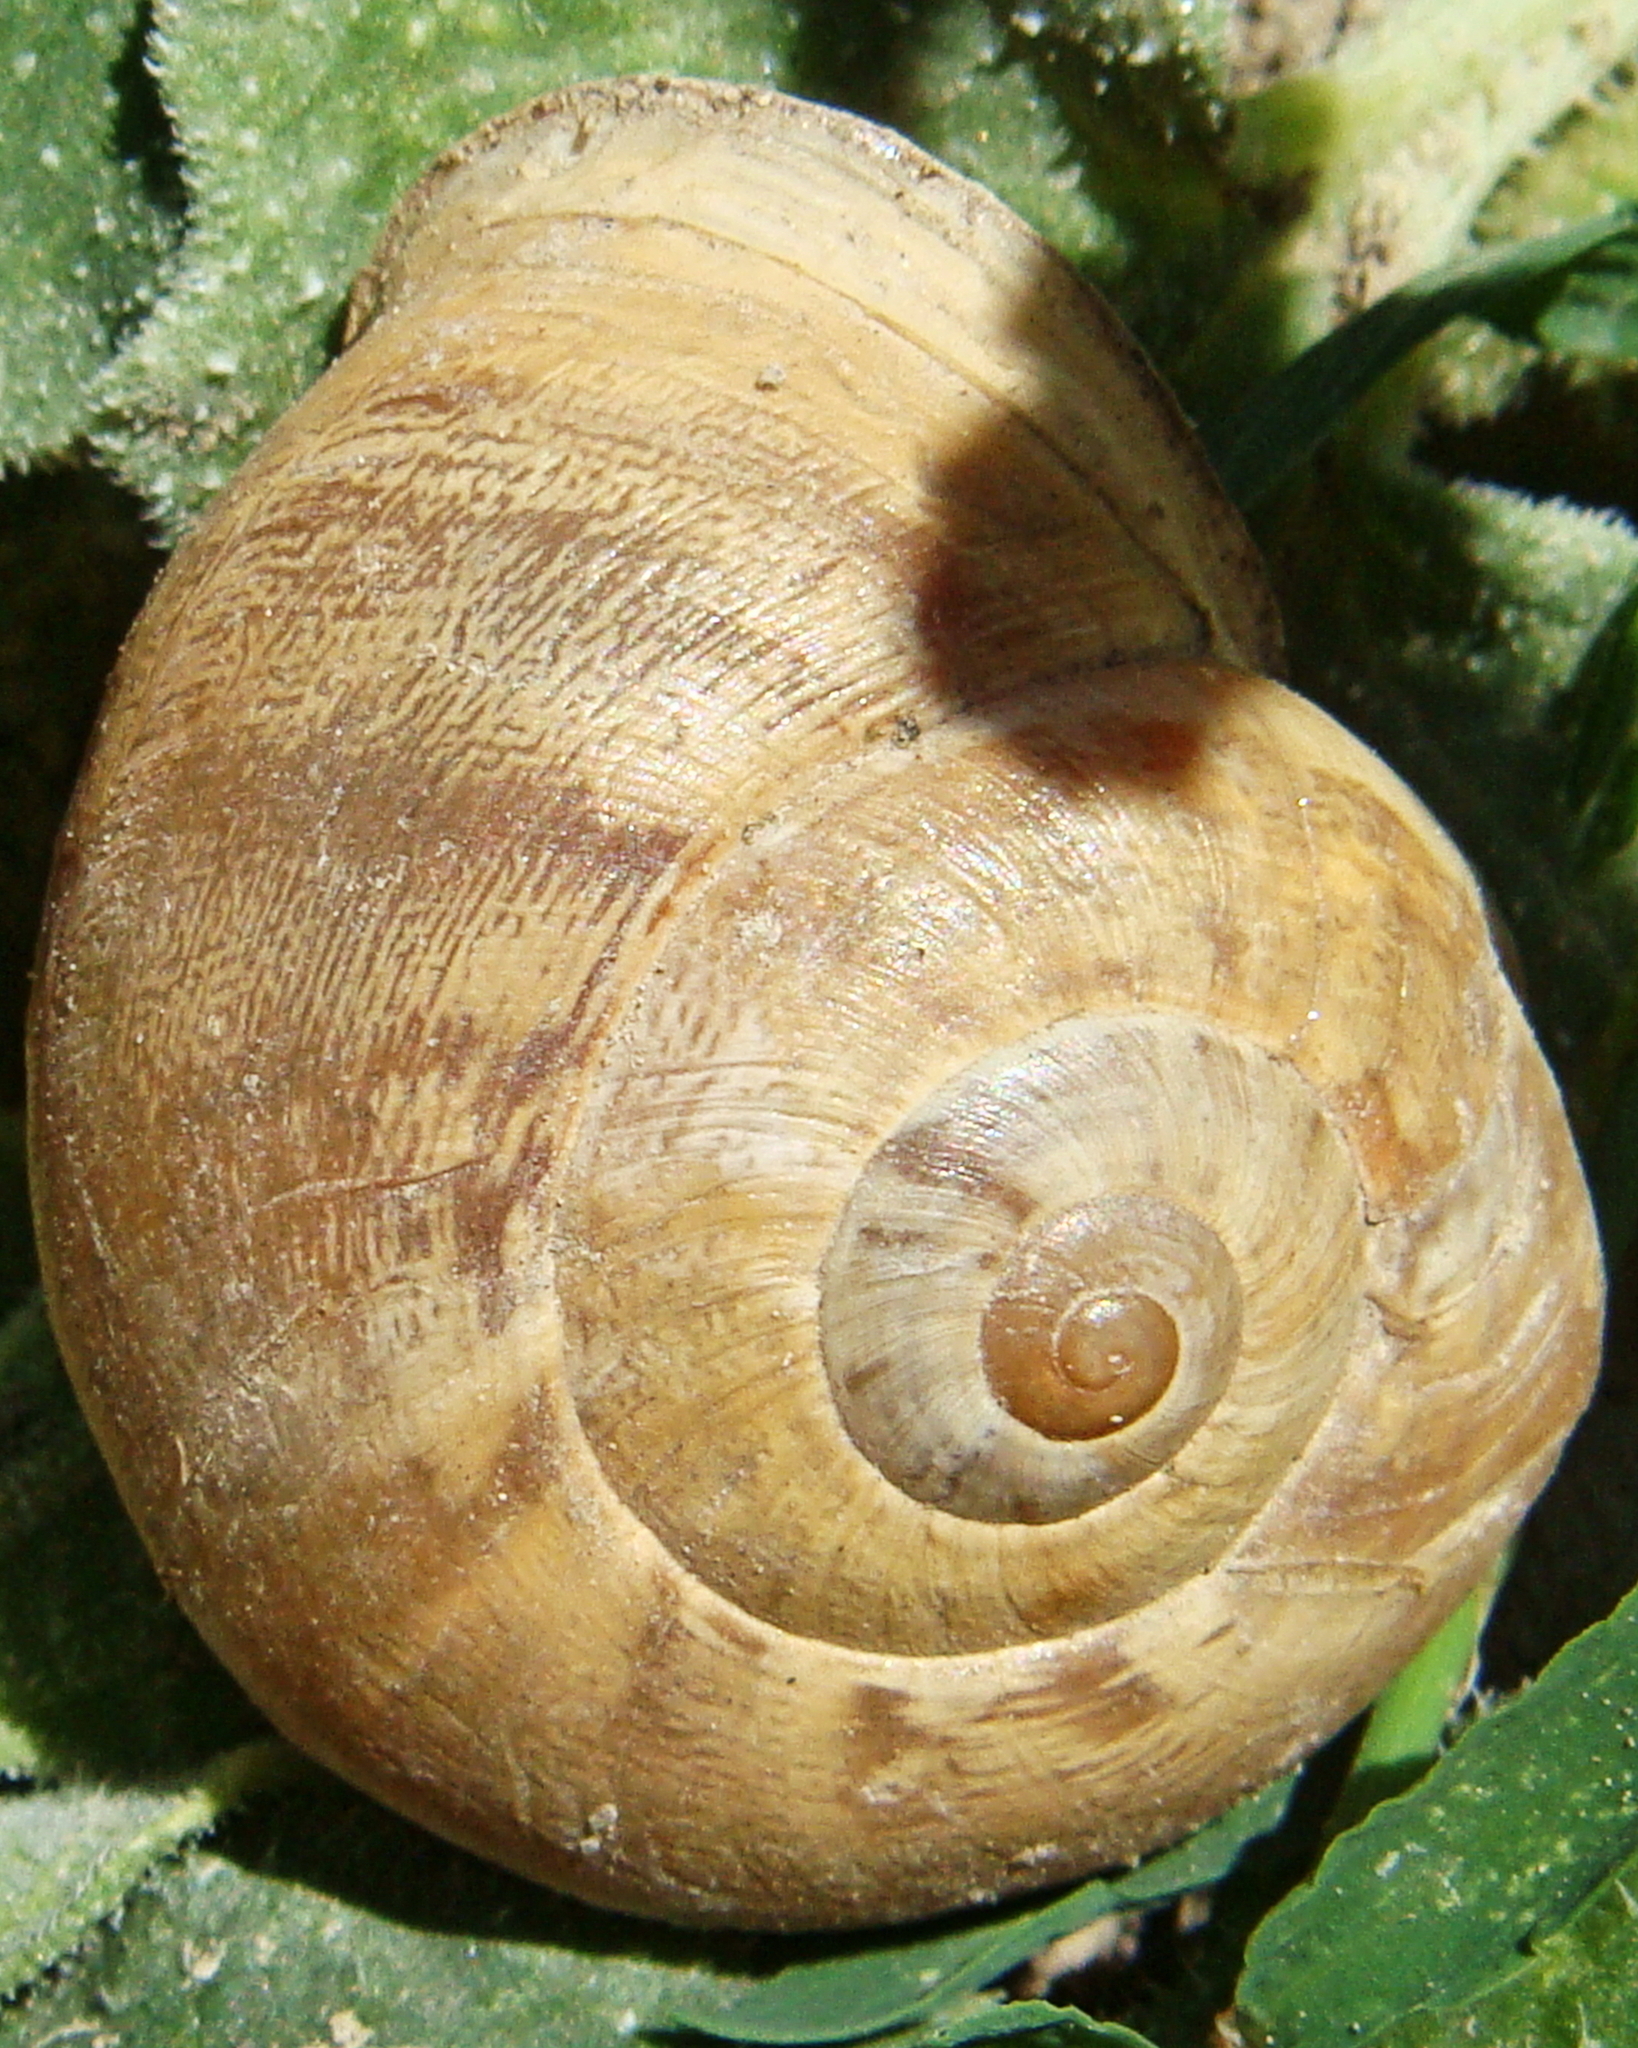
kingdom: Animalia
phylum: Mollusca
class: Gastropoda
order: Stylommatophora
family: Helicidae
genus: Eobania
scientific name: Eobania vermiculata
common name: Chocolateband snail
